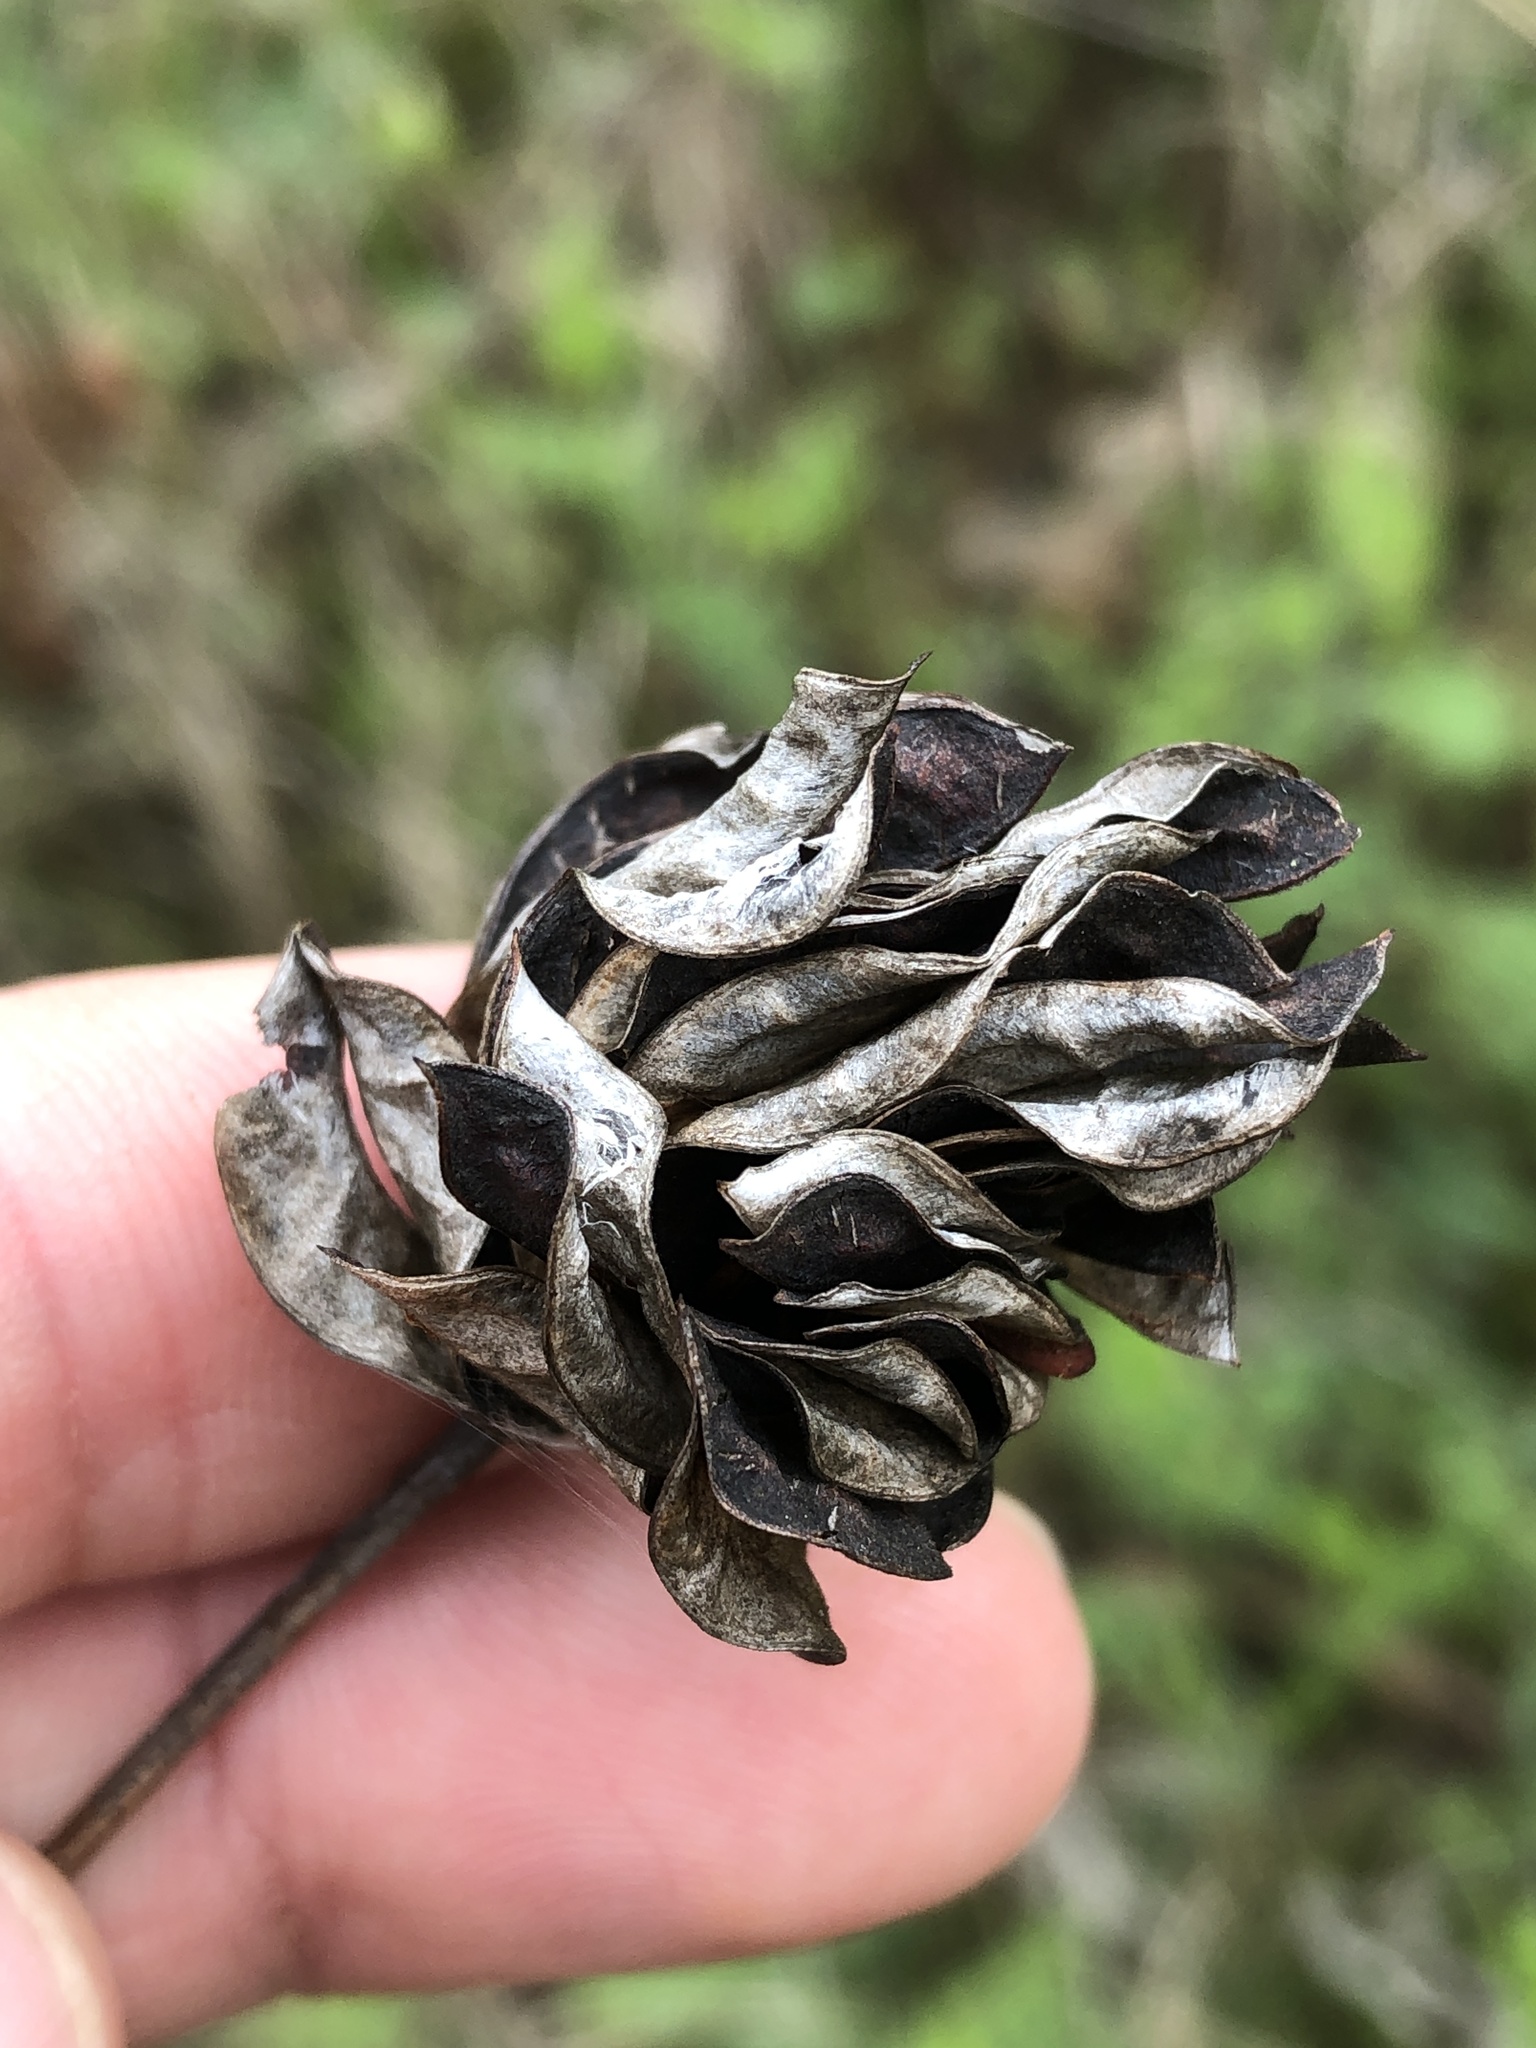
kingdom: Plantae
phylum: Tracheophyta
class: Magnoliopsida
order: Fabales
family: Fabaceae
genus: Desmanthus
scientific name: Desmanthus illinoensis
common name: Illinois bundle-flower
